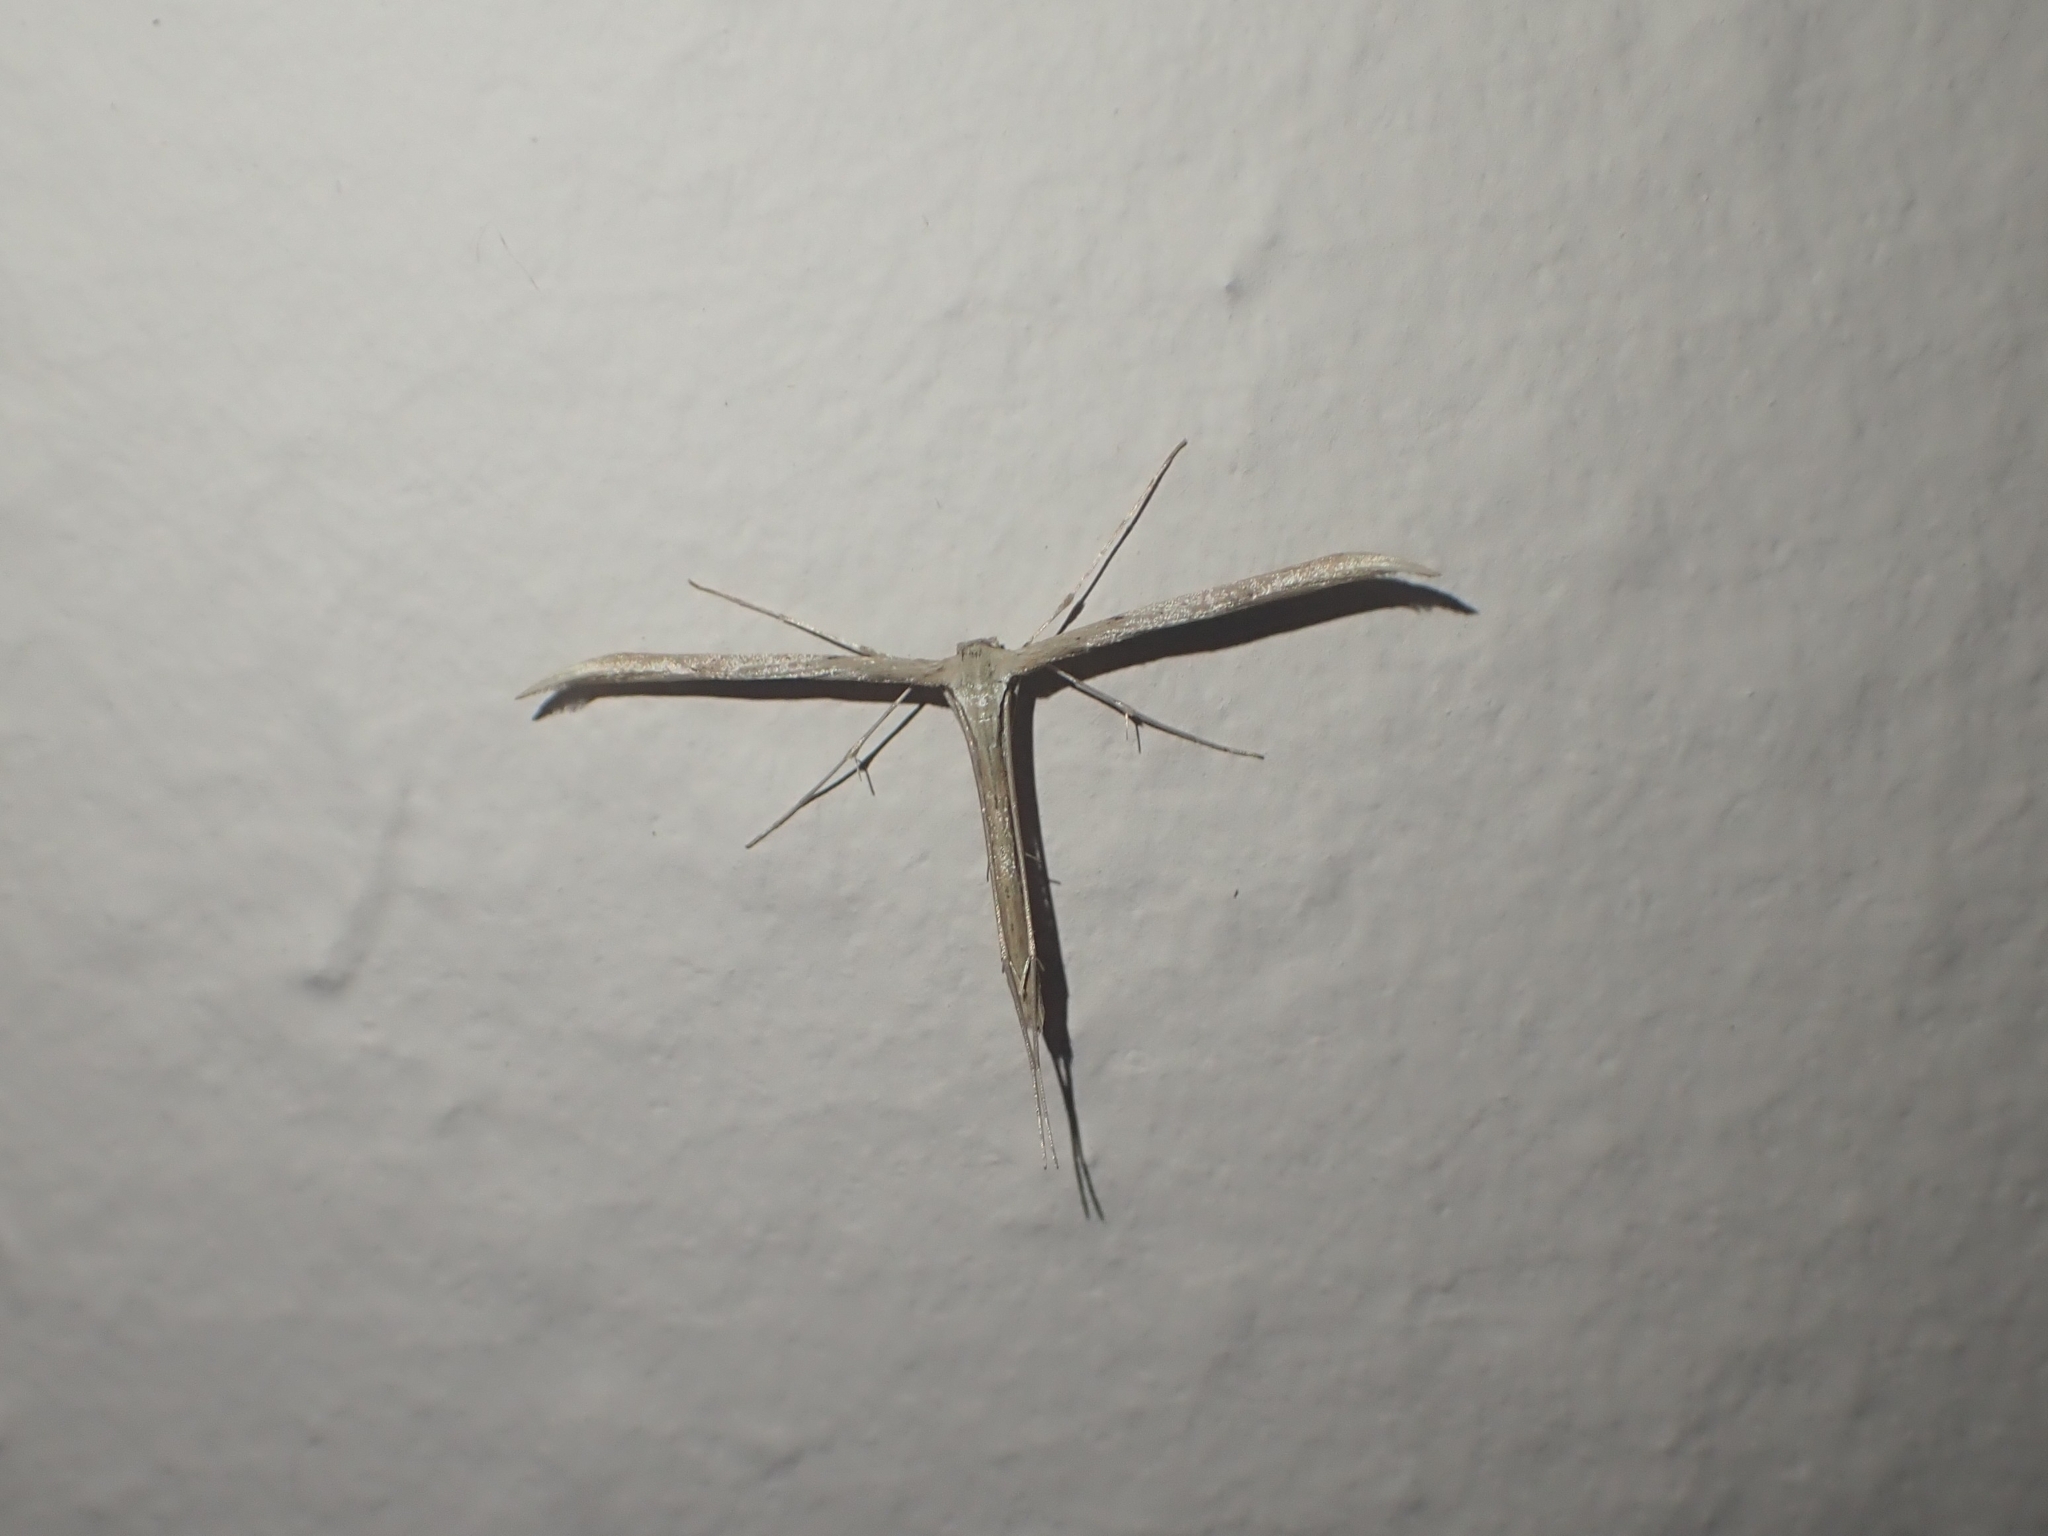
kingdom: Animalia
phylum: Arthropoda
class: Insecta
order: Lepidoptera
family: Pterophoridae
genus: Emmelina
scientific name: Emmelina monodactyla
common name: Common plume
